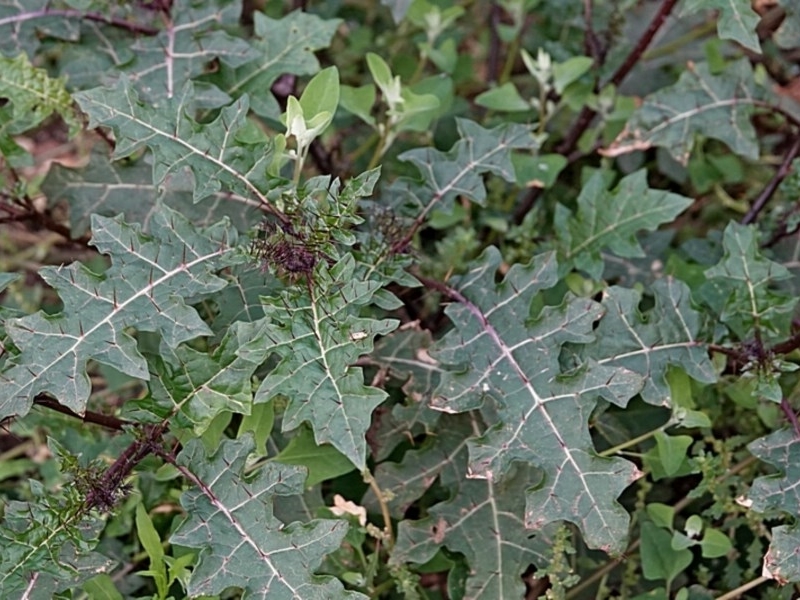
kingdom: Plantae
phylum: Tracheophyta
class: Magnoliopsida
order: Solanales
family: Solanaceae
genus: Solanum
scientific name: Solanum prinophyllum
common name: Forest nightshade
